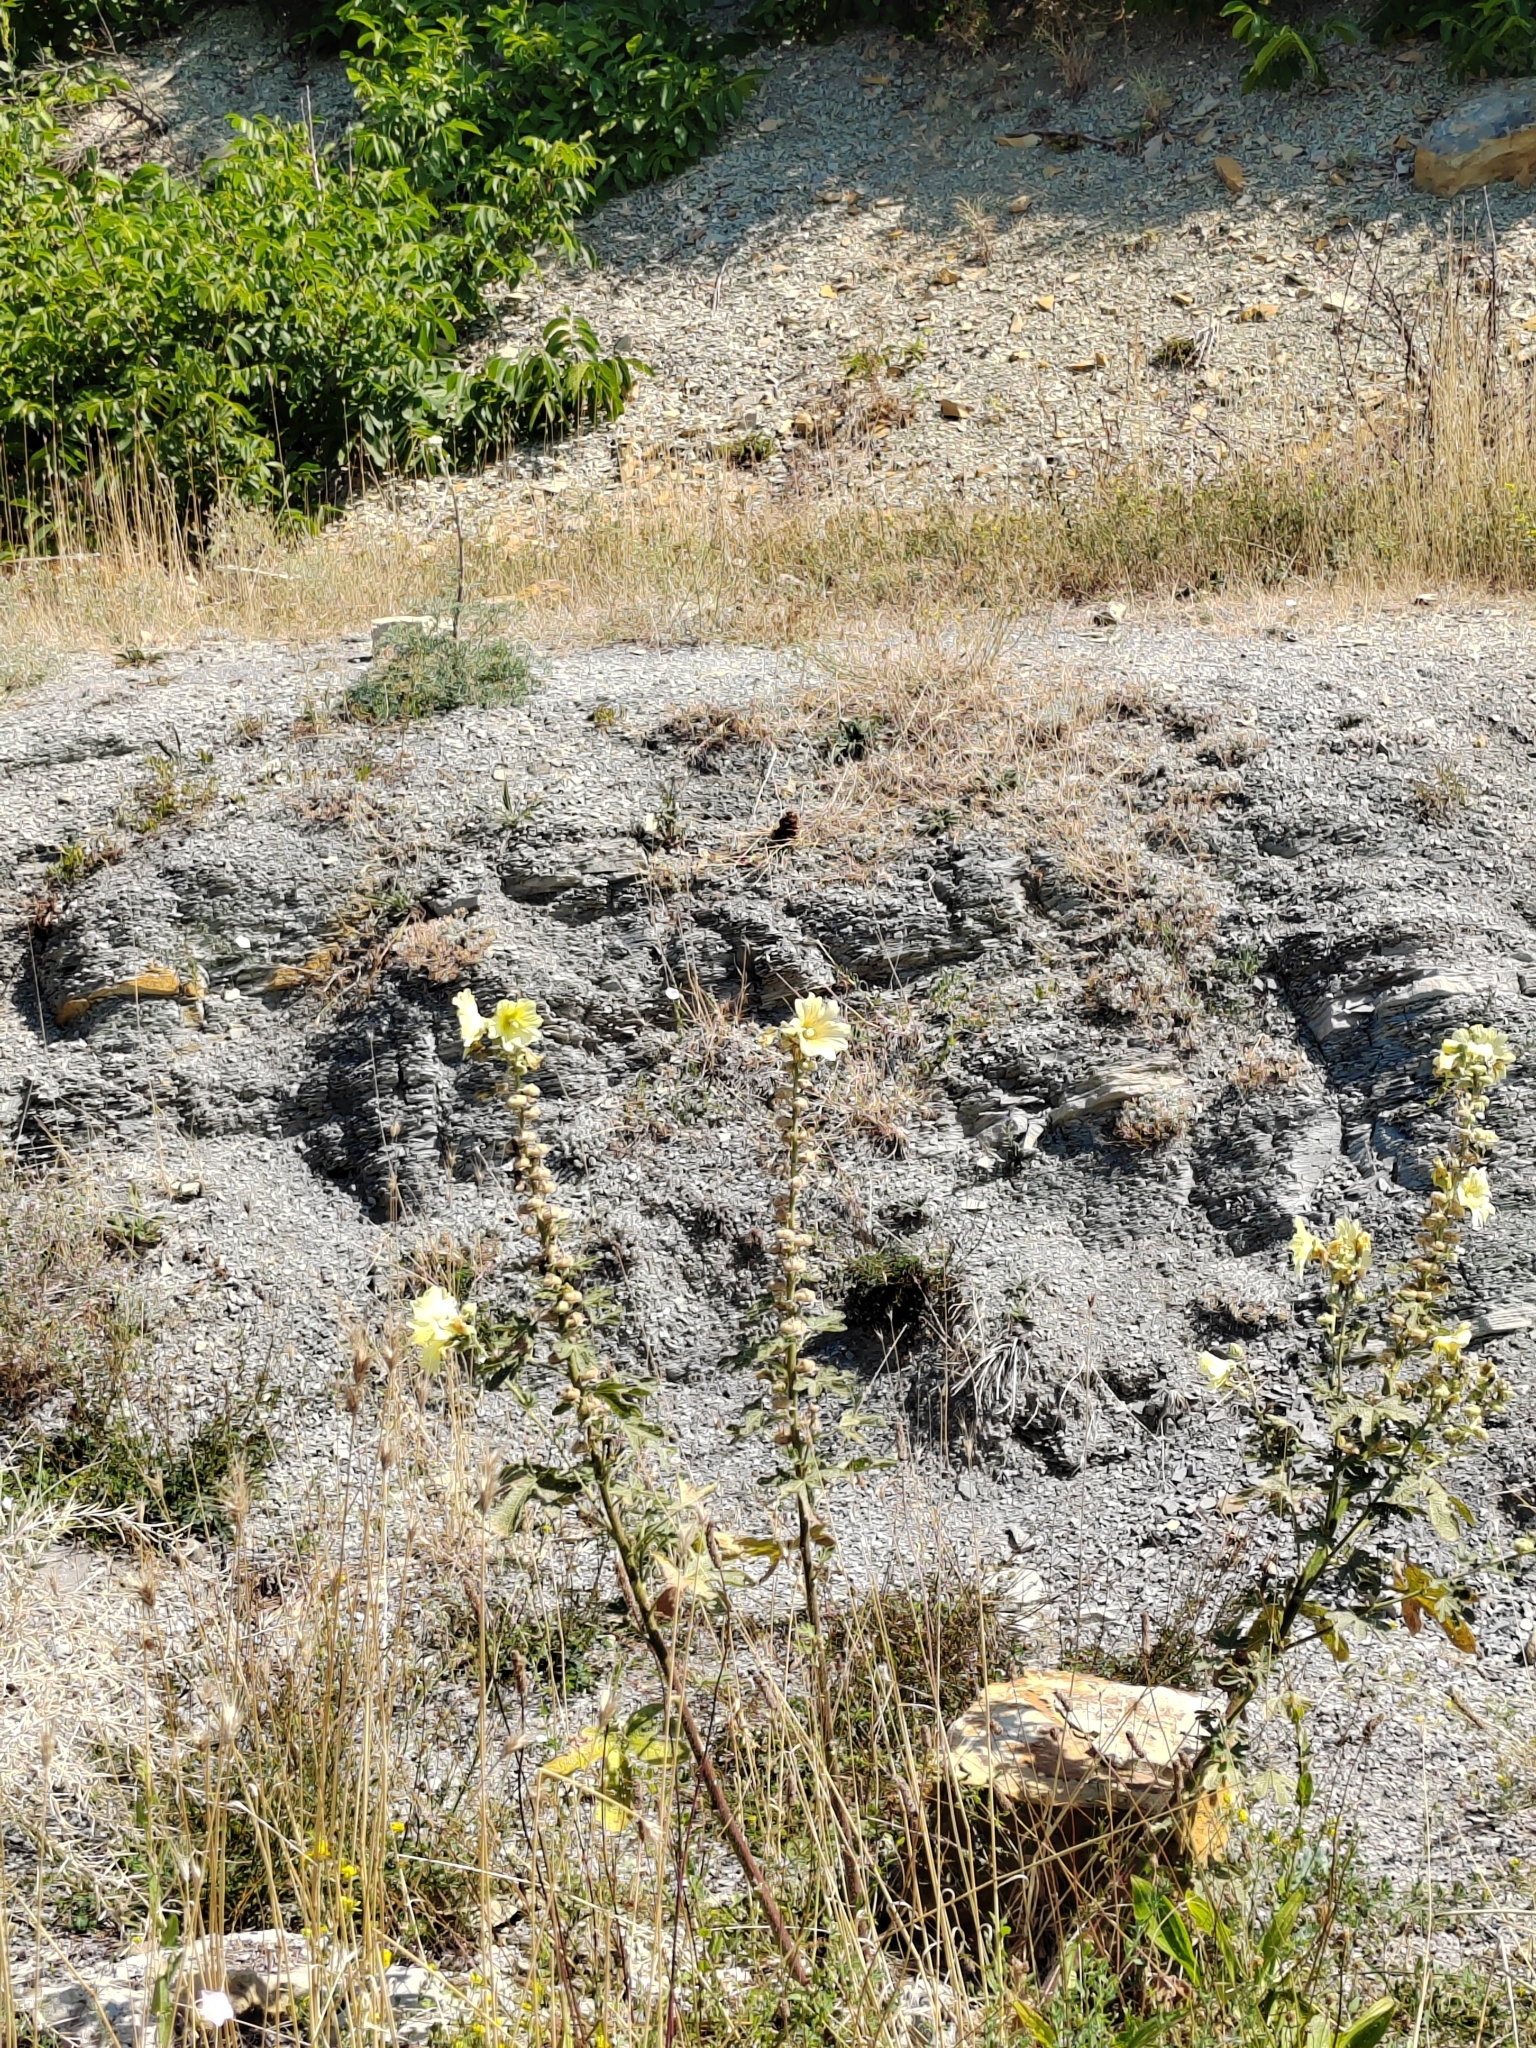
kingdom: Plantae
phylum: Tracheophyta
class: Magnoliopsida
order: Malvales
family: Malvaceae
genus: Alcea
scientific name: Alcea rugosa
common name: Russian hollyhock
